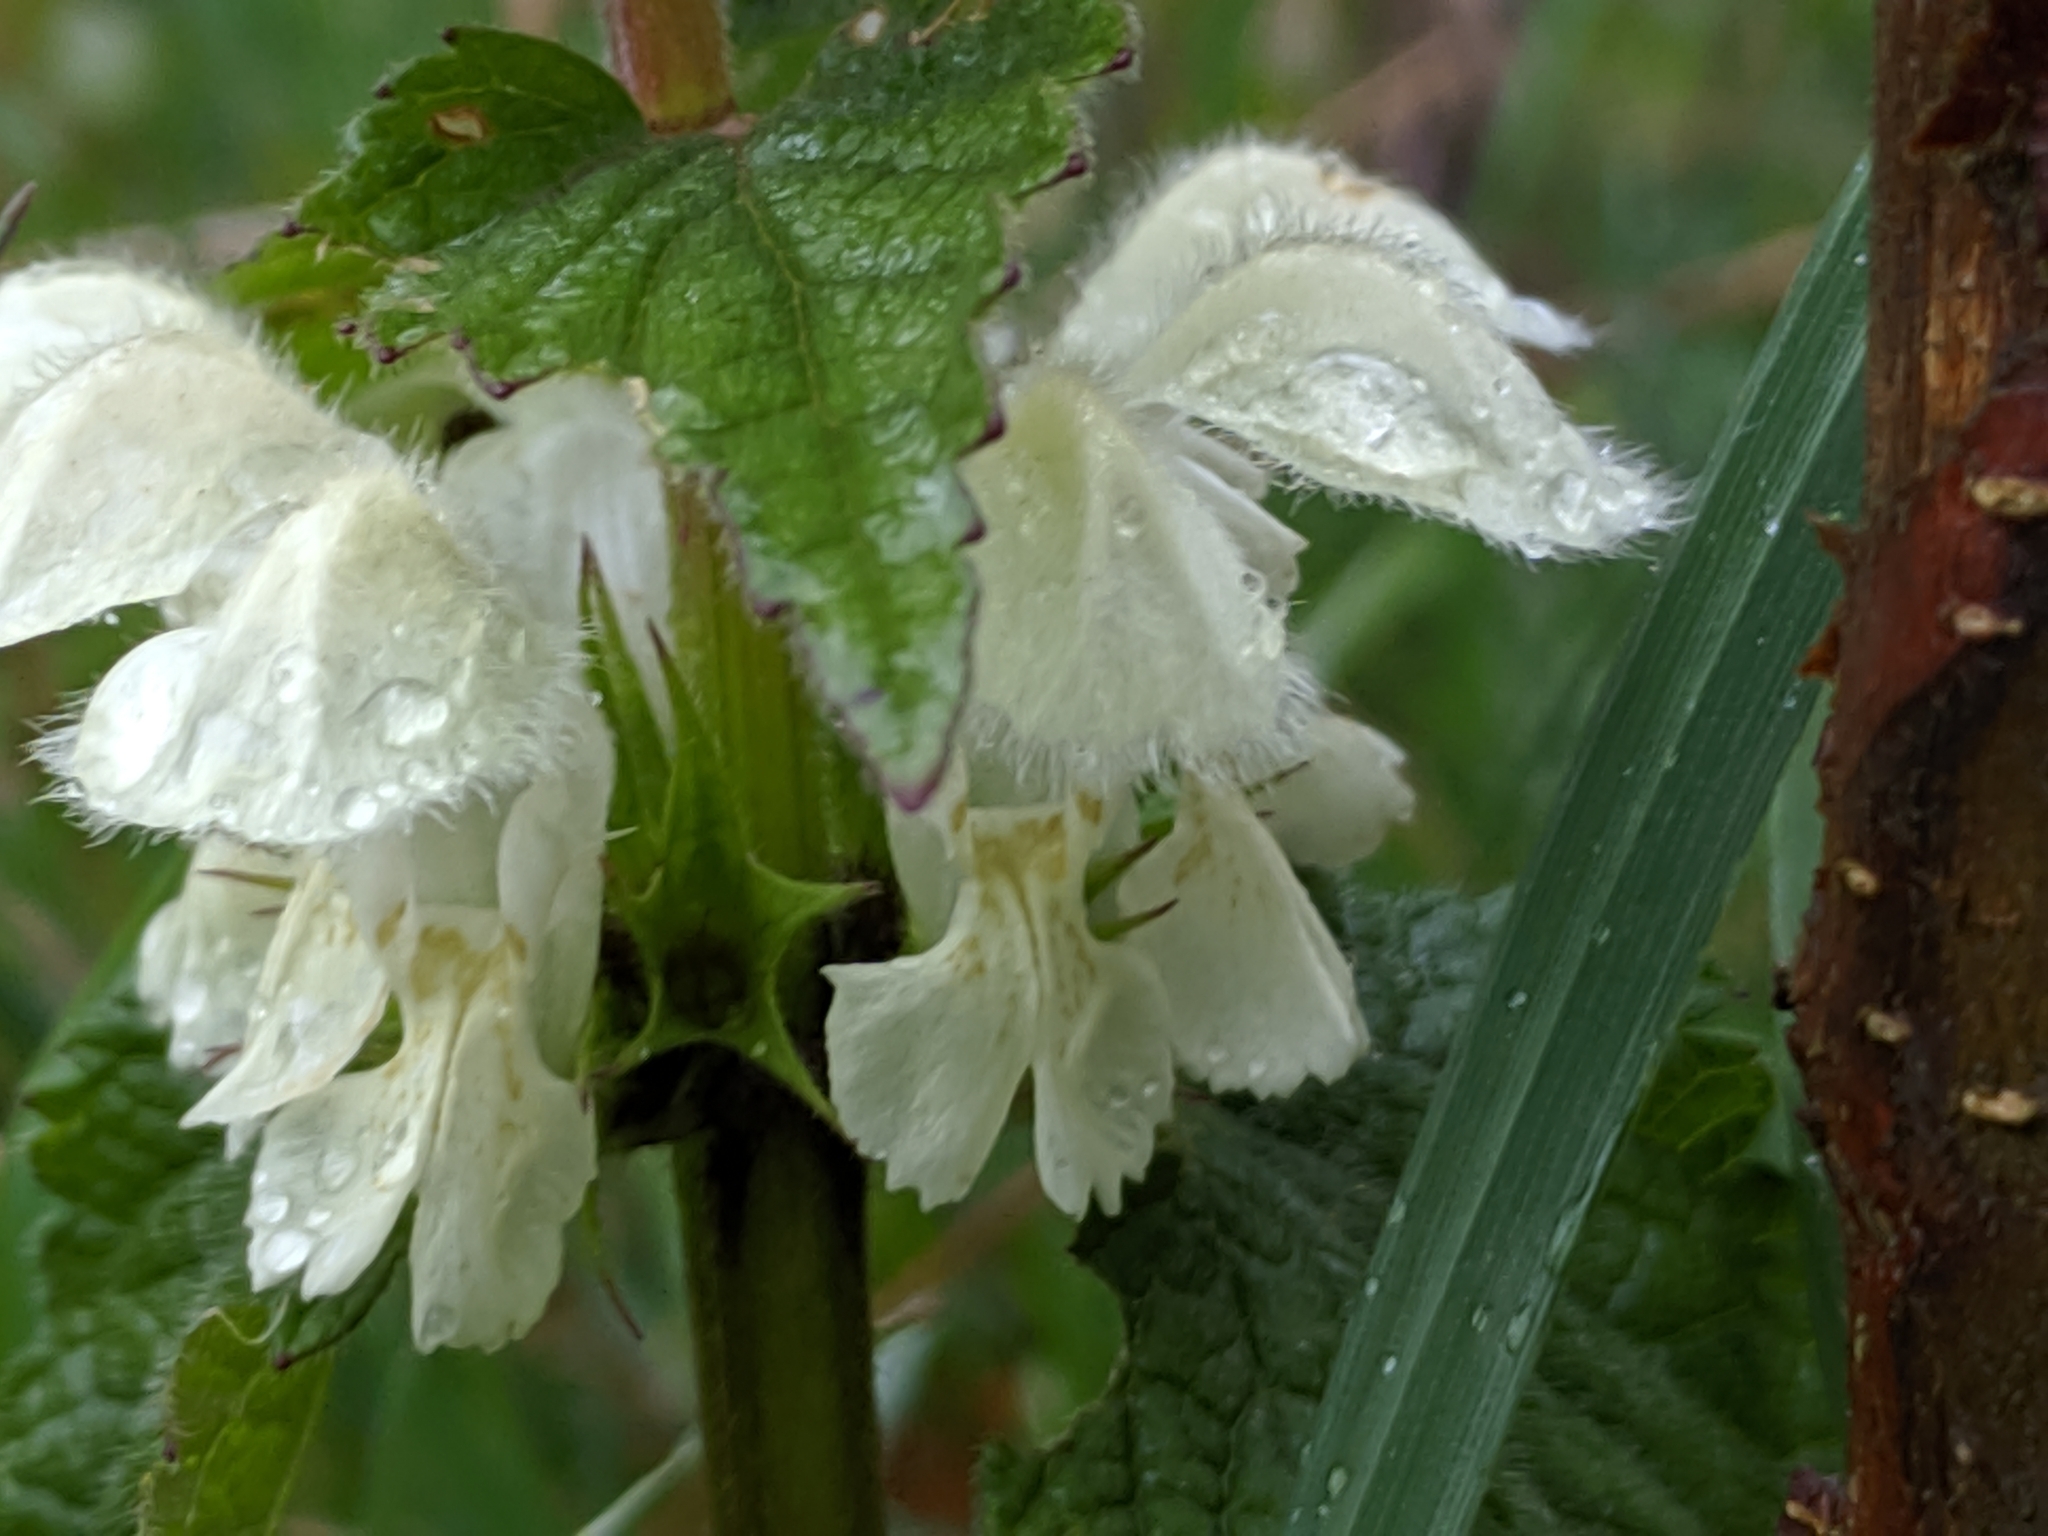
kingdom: Plantae
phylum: Tracheophyta
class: Magnoliopsida
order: Lamiales
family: Lamiaceae
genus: Lamium
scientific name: Lamium album
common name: White dead-nettle
